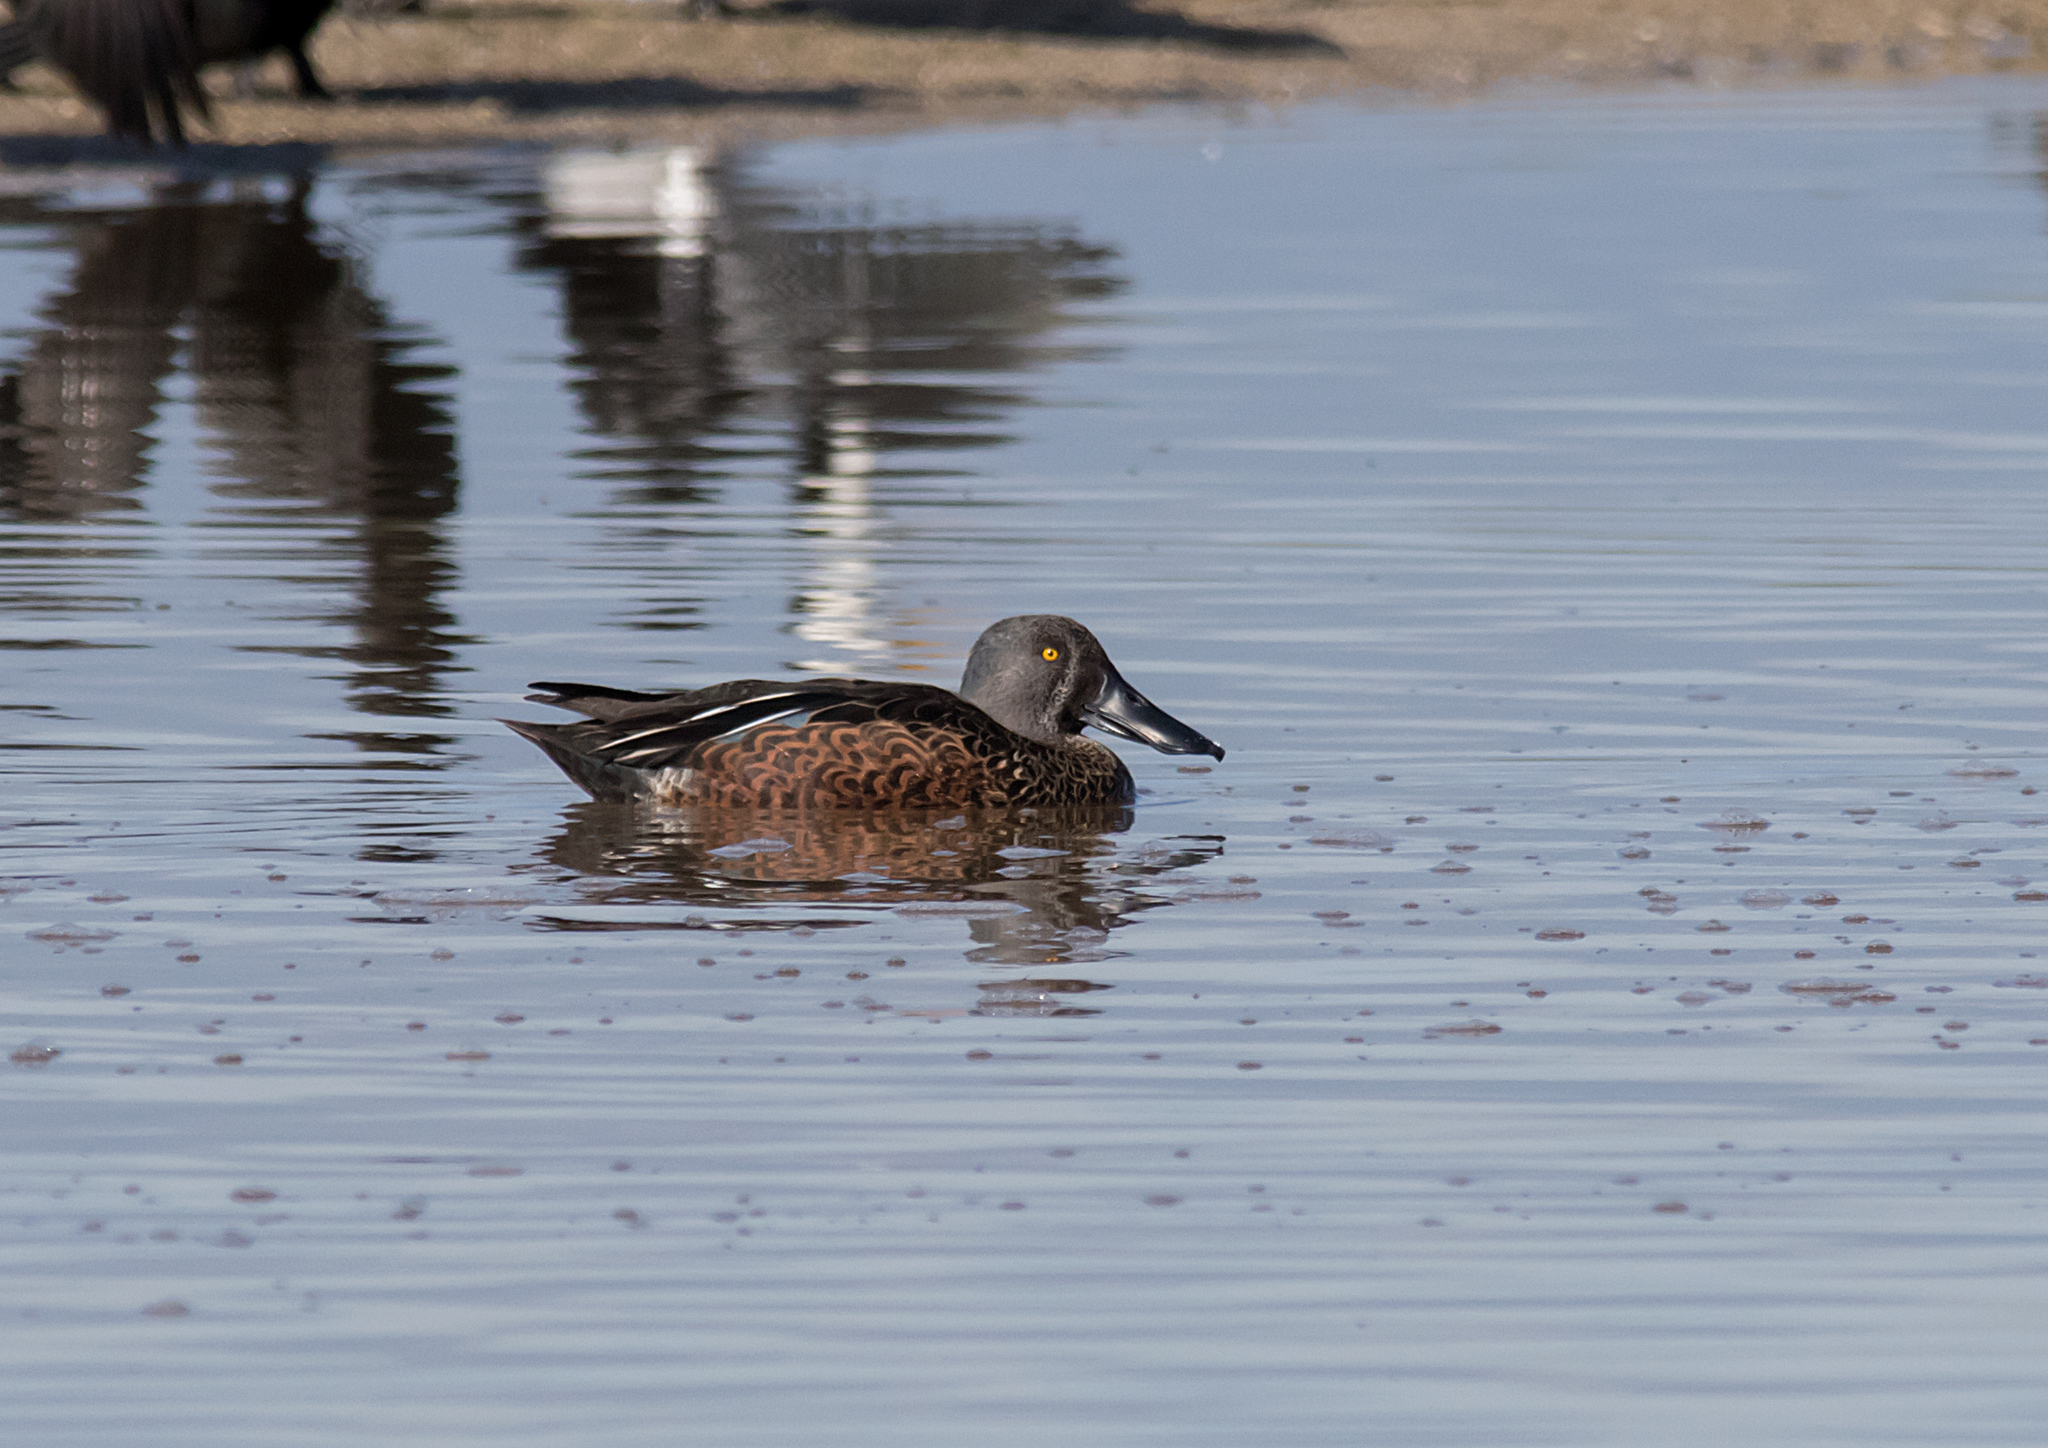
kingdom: Animalia
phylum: Chordata
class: Aves
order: Anseriformes
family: Anatidae
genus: Spatula
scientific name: Spatula rhynchotis
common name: Australian shoveler
